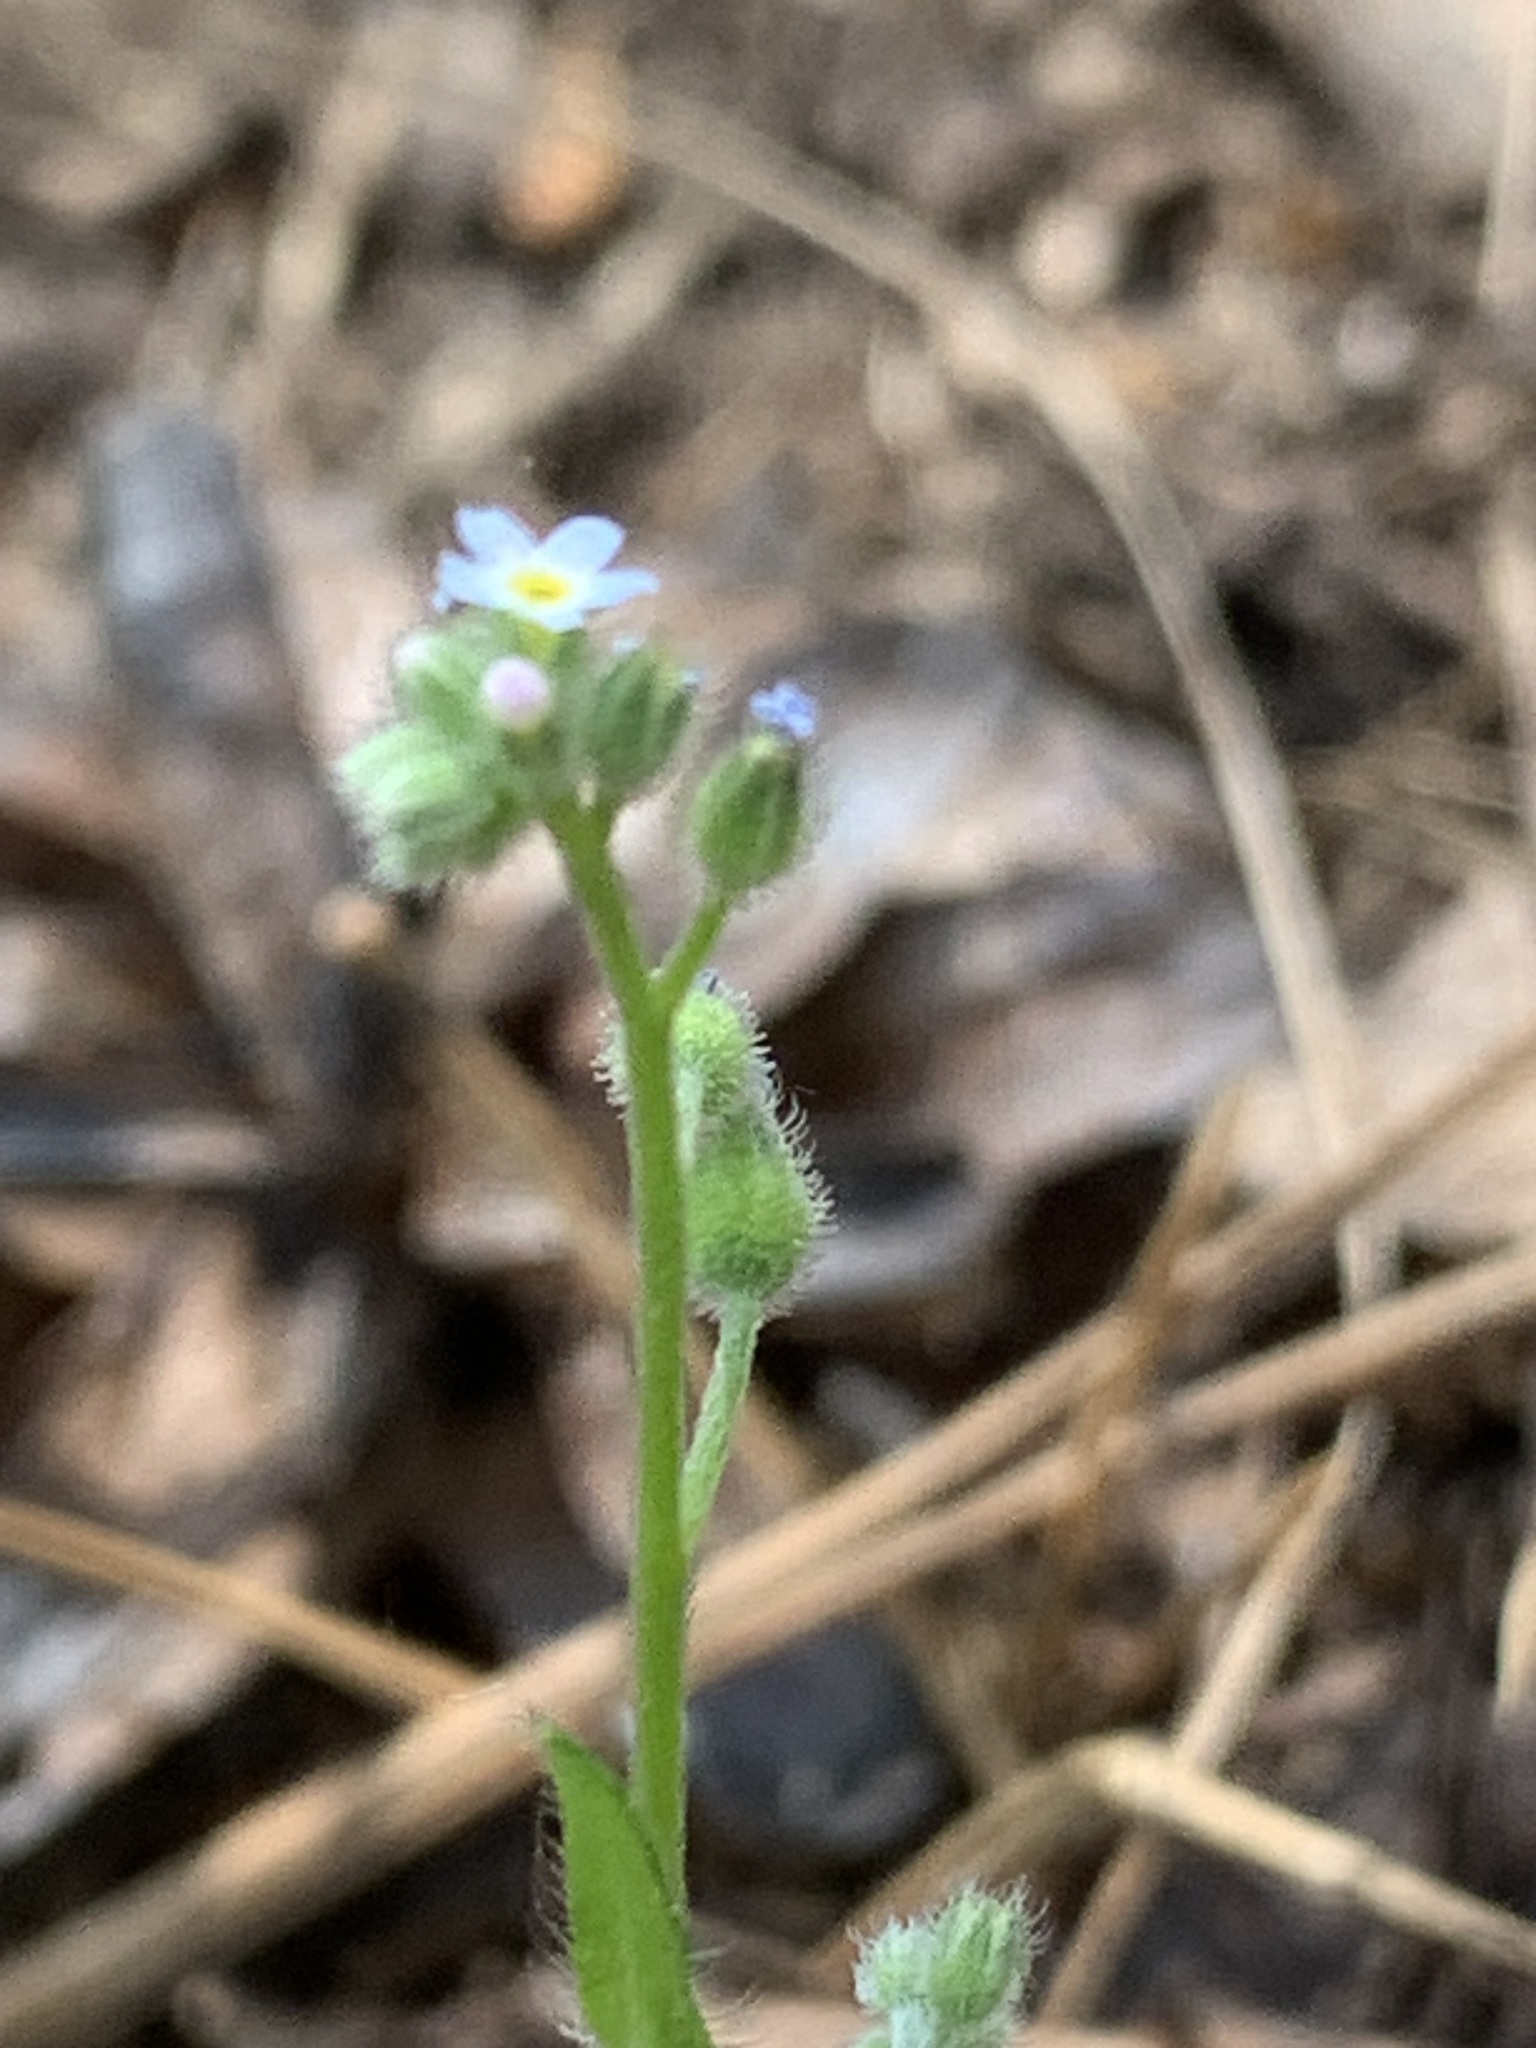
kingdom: Plantae
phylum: Tracheophyta
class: Magnoliopsida
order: Boraginales
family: Boraginaceae
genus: Myosotis
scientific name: Myosotis arvensis
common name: Field forget-me-not
